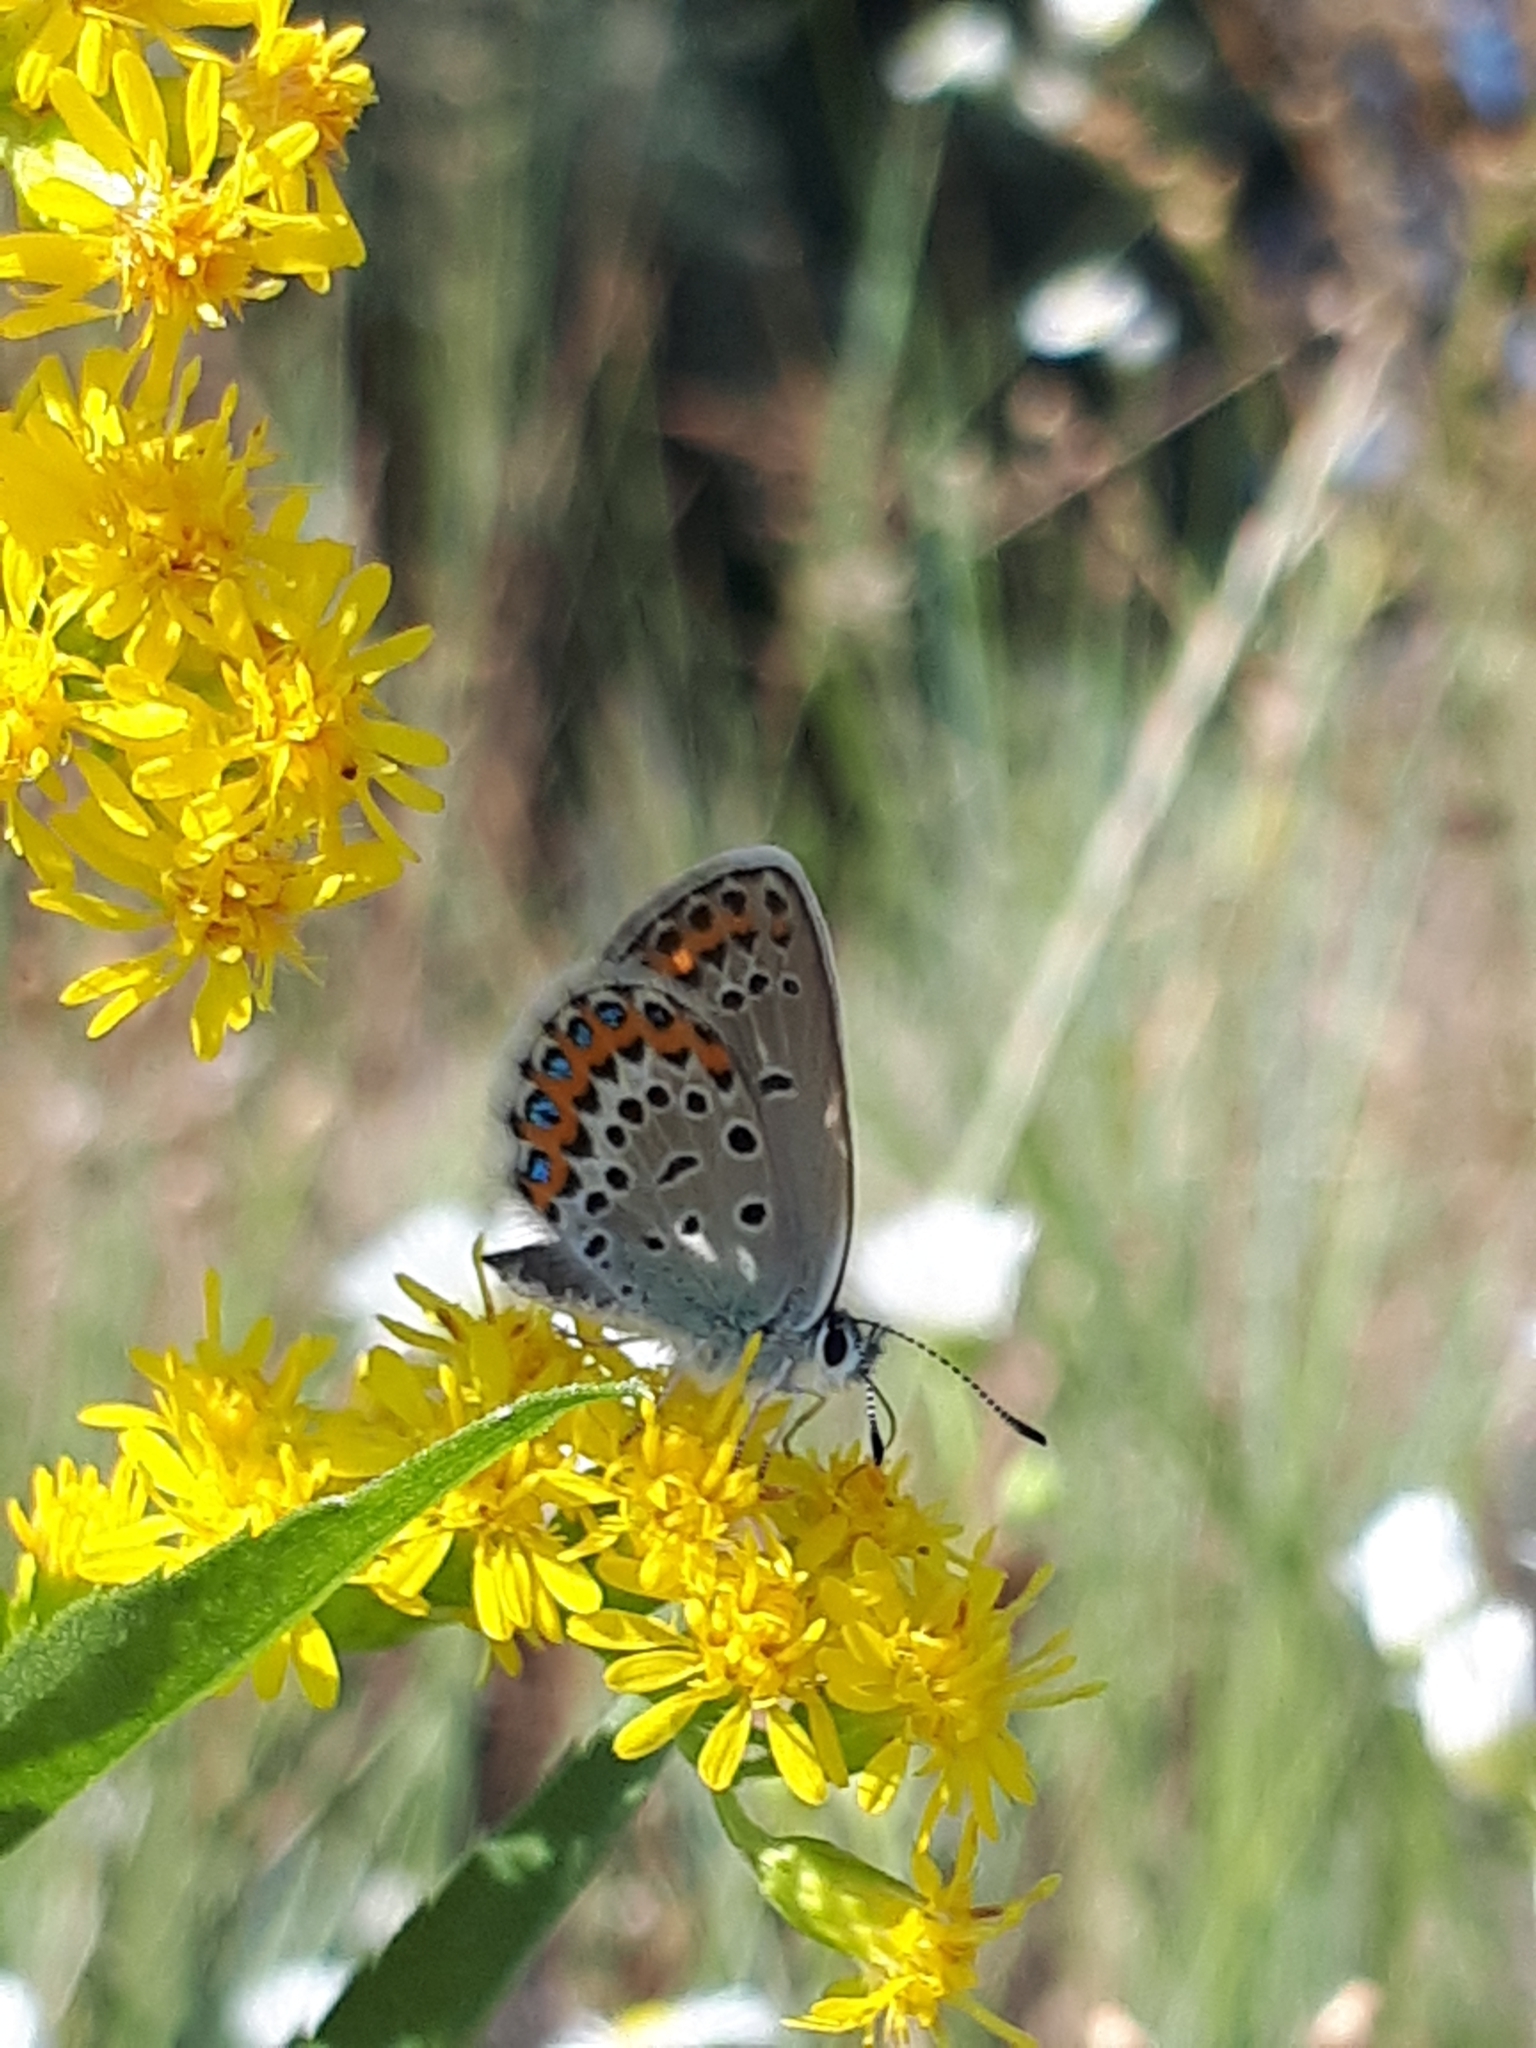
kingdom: Animalia
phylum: Arthropoda
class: Insecta
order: Lepidoptera
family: Lycaenidae
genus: Lycaeides
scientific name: Lycaeides idas
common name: Northern blue
